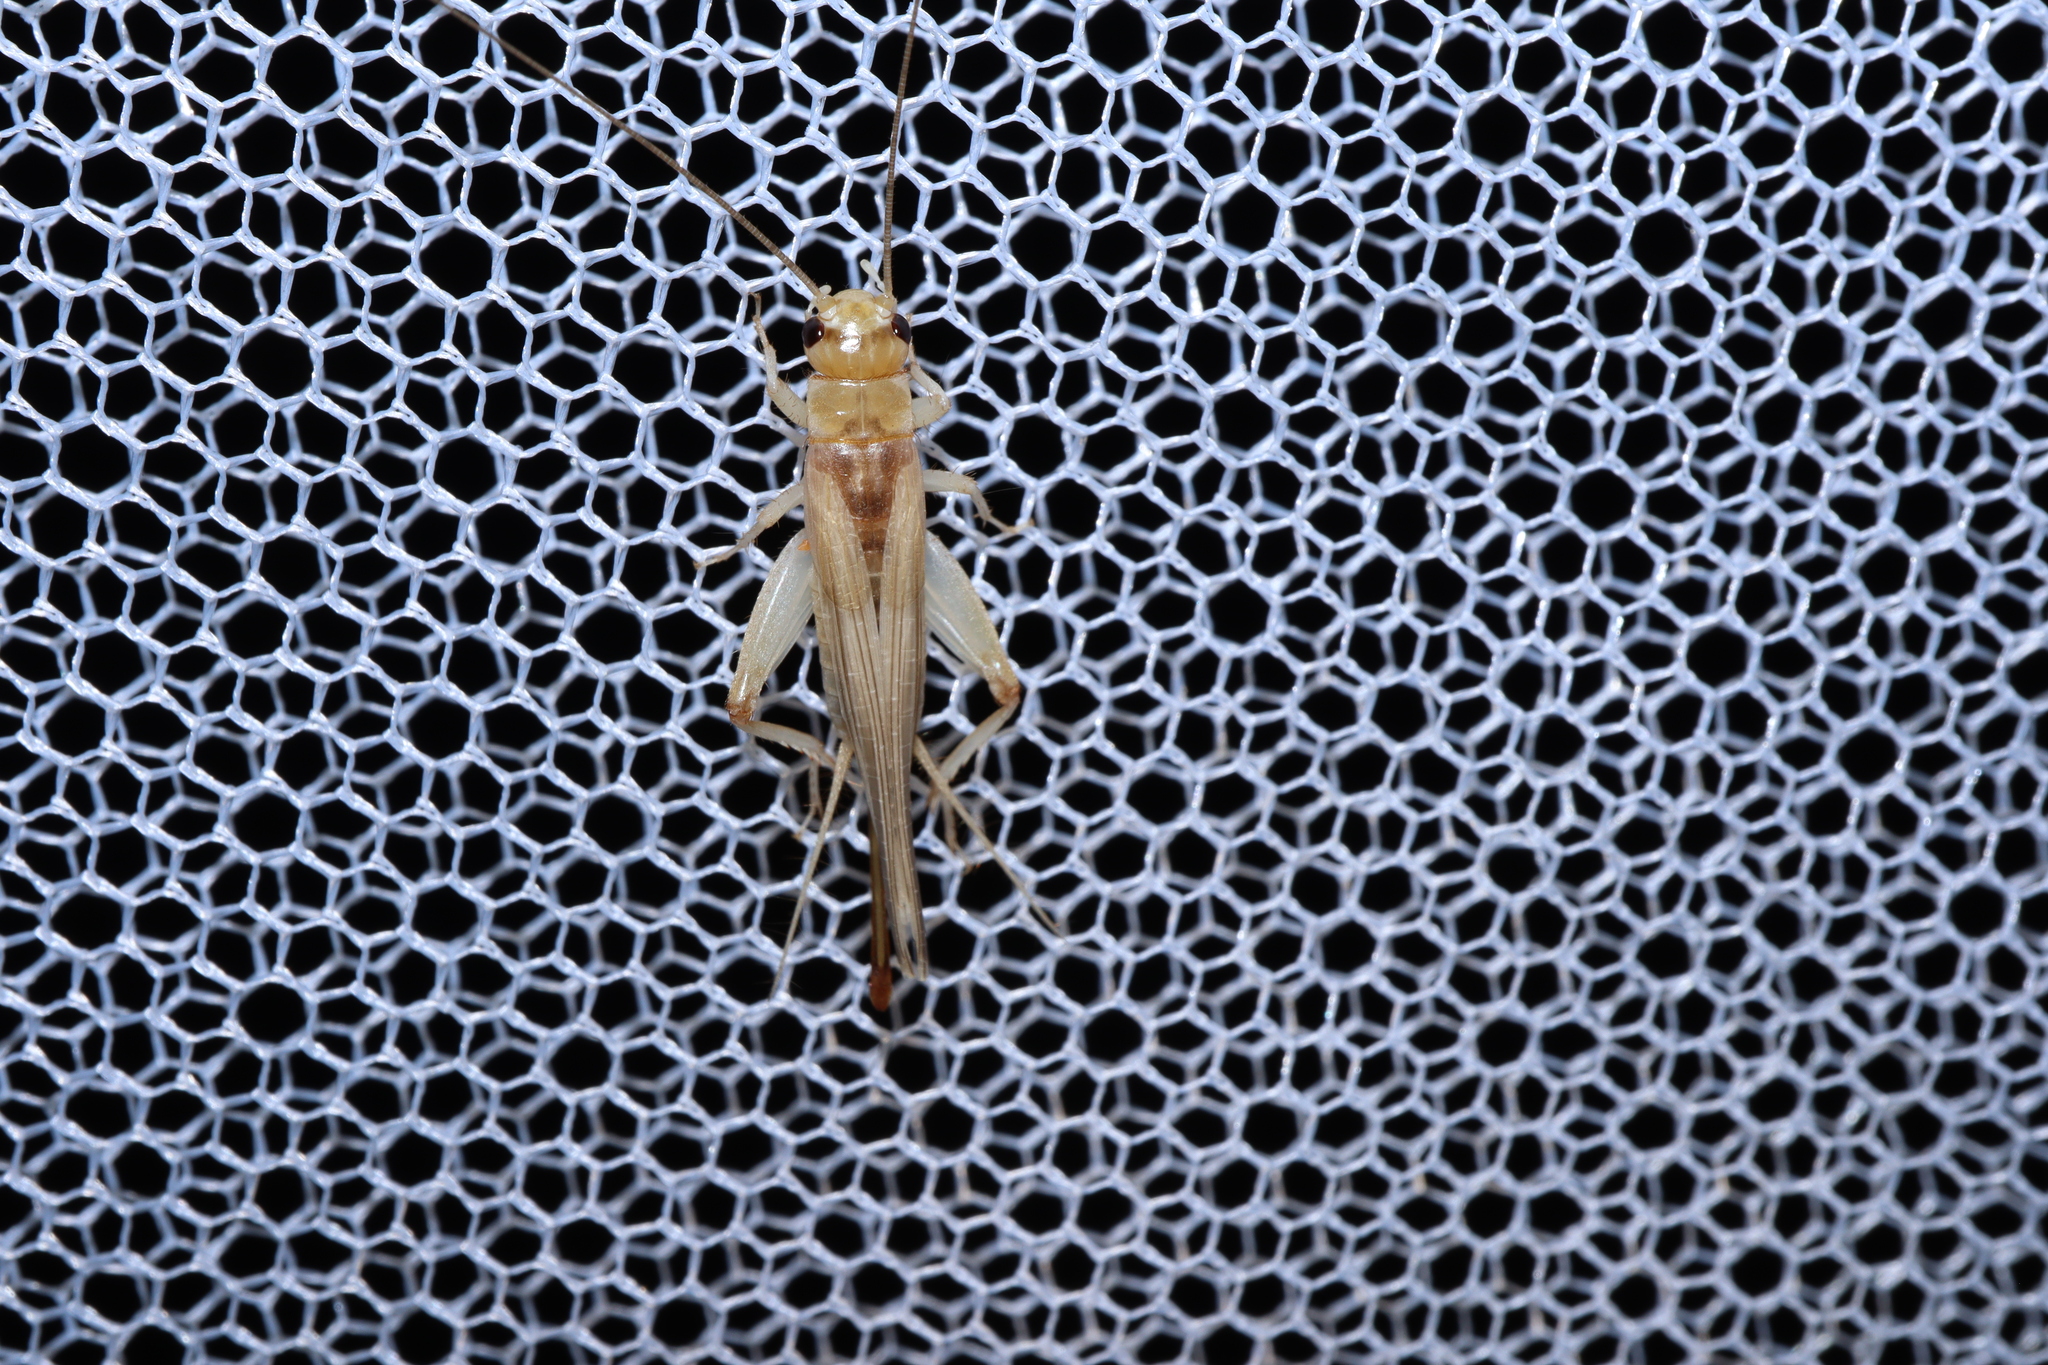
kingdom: Animalia
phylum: Arthropoda
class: Insecta
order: Orthoptera
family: Gryllidae
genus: Cyrtoprosopus
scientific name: Cyrtoprosopus stramineus
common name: Straw-coloured ground cricket
